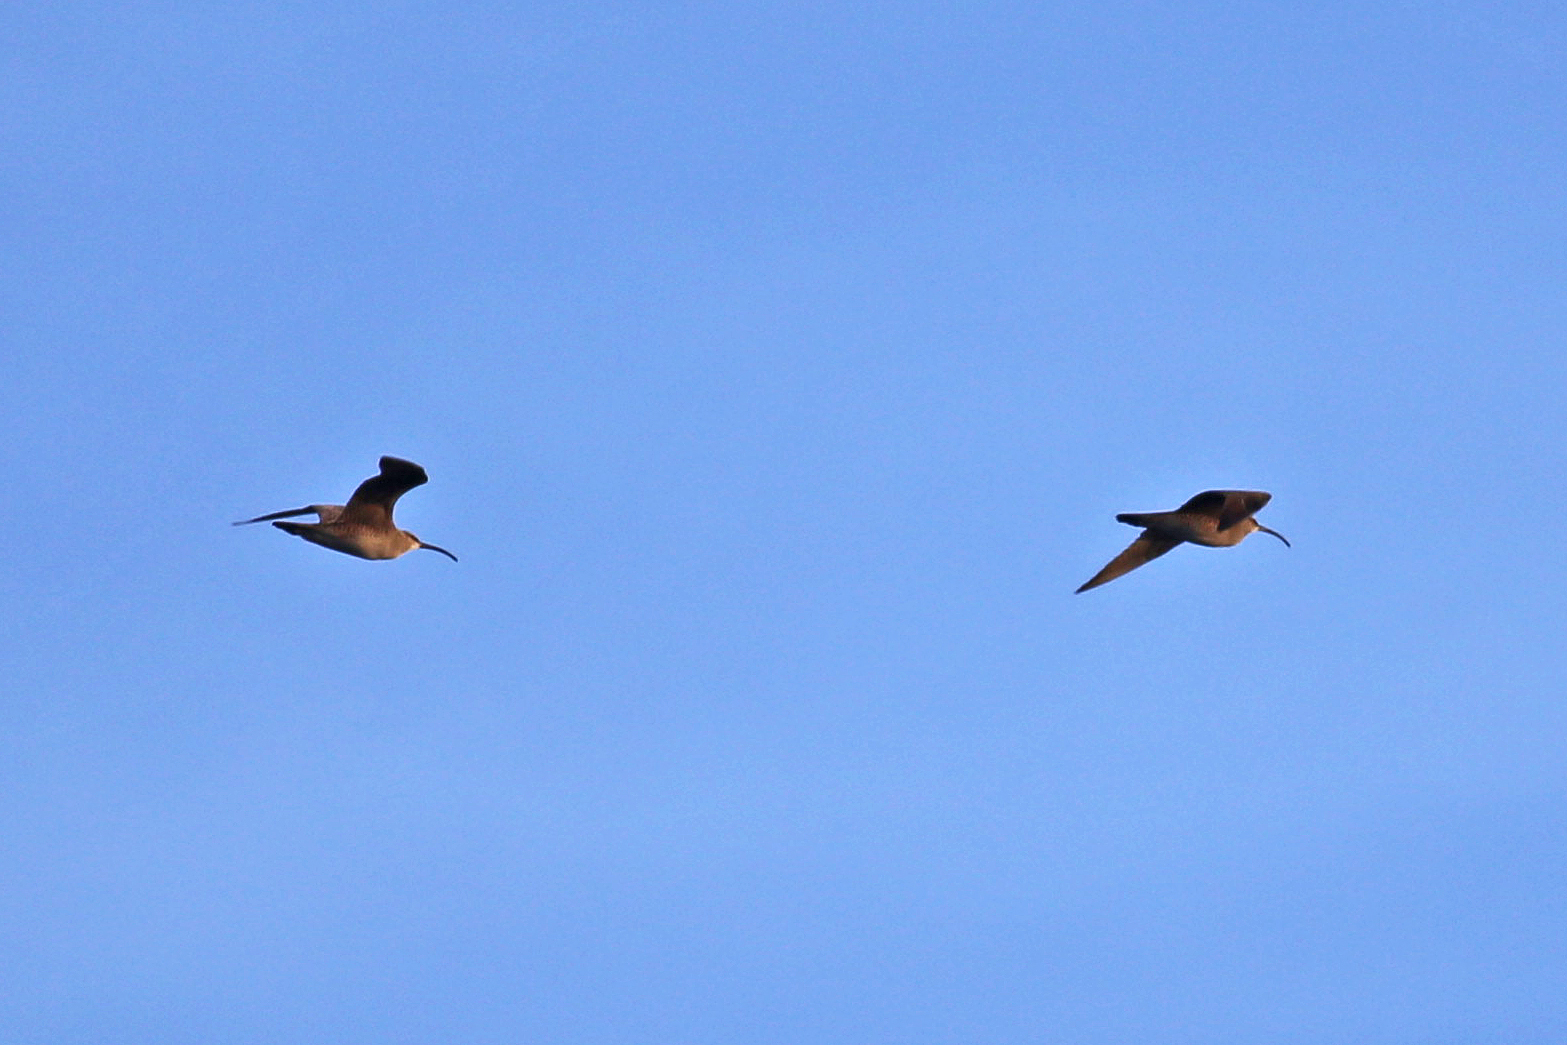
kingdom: Animalia
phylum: Chordata
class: Aves
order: Charadriiformes
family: Scolopacidae
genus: Numenius
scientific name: Numenius phaeopus
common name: Whimbrel
